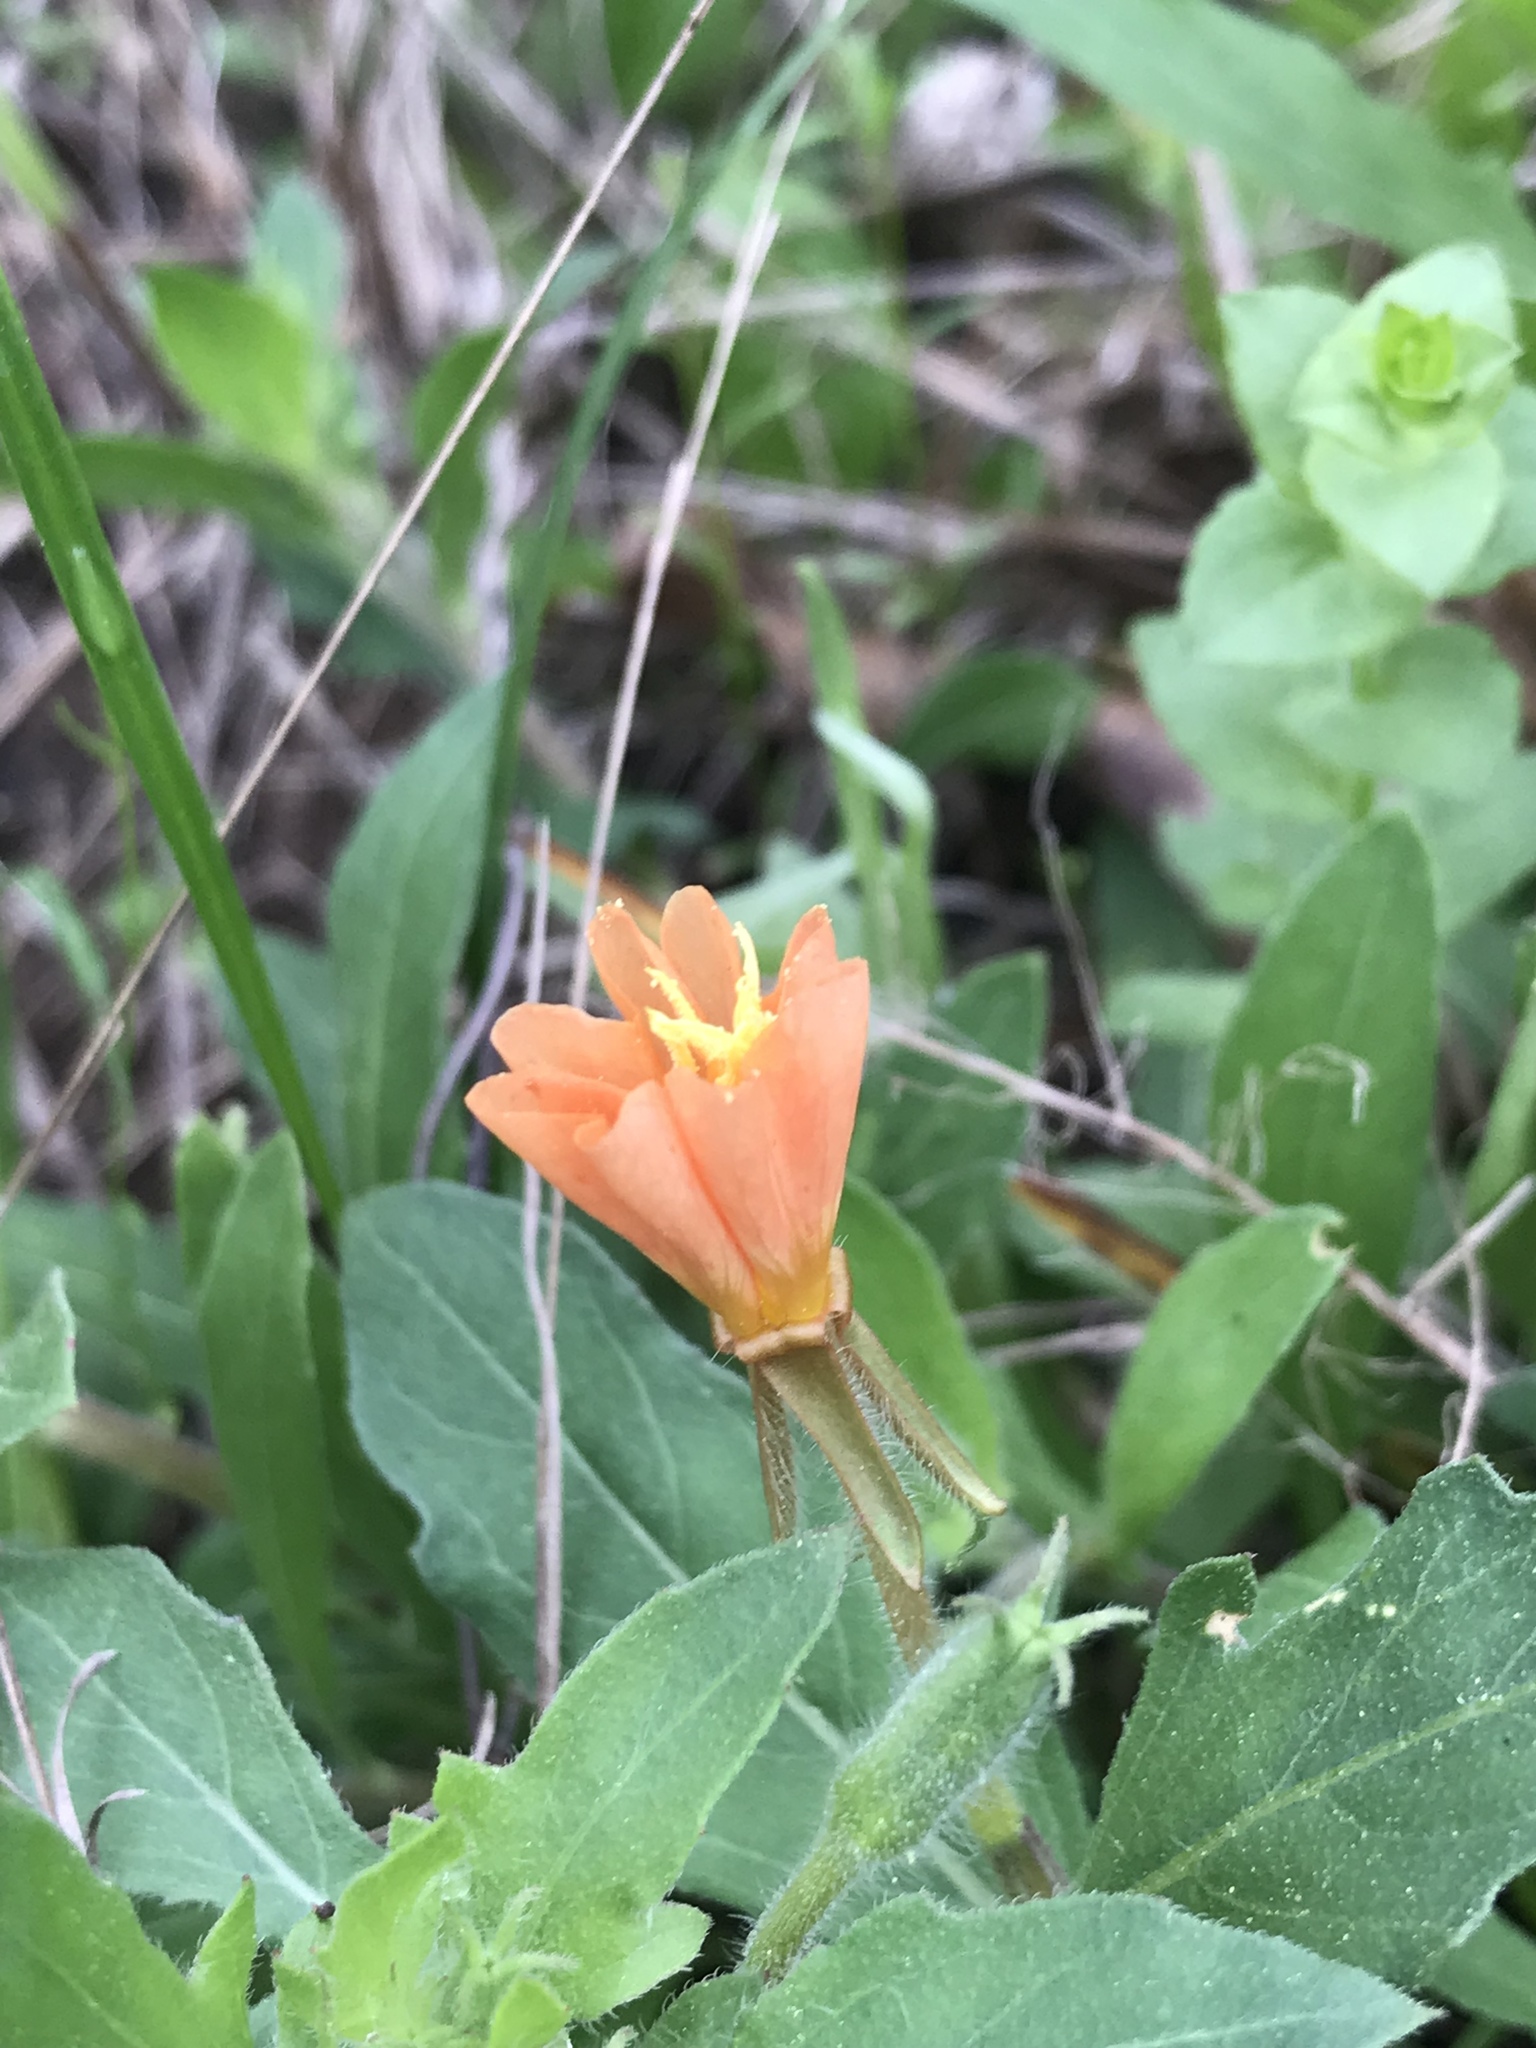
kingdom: Plantae
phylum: Tracheophyta
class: Magnoliopsida
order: Myrtales
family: Onagraceae
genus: Oenothera
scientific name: Oenothera laciniata
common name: Cut-leaved evening-primrose
